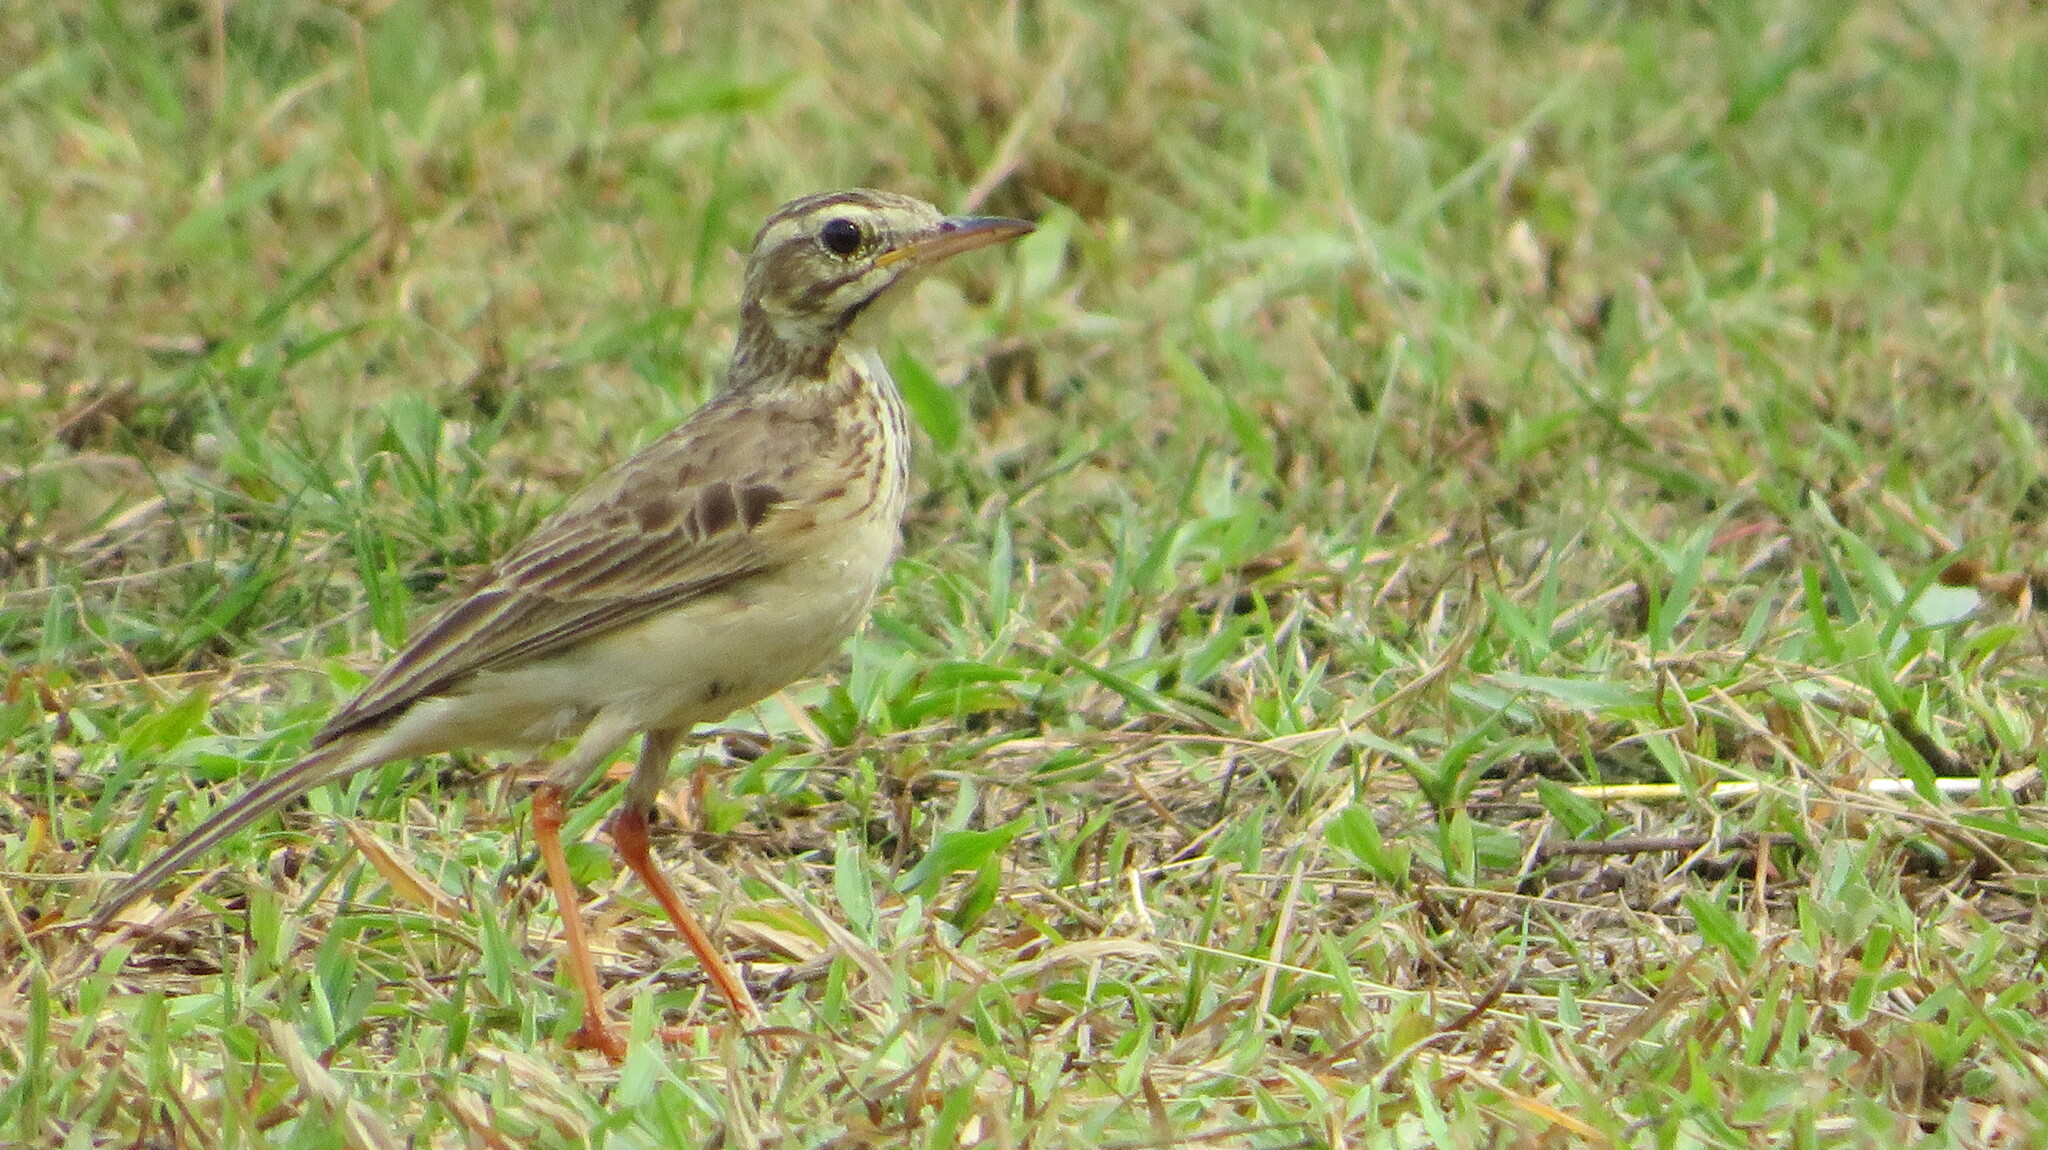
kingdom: Animalia
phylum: Chordata
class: Aves
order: Passeriformes
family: Motacillidae
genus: Anthus
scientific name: Anthus rufulus
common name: Paddyfield pipit
